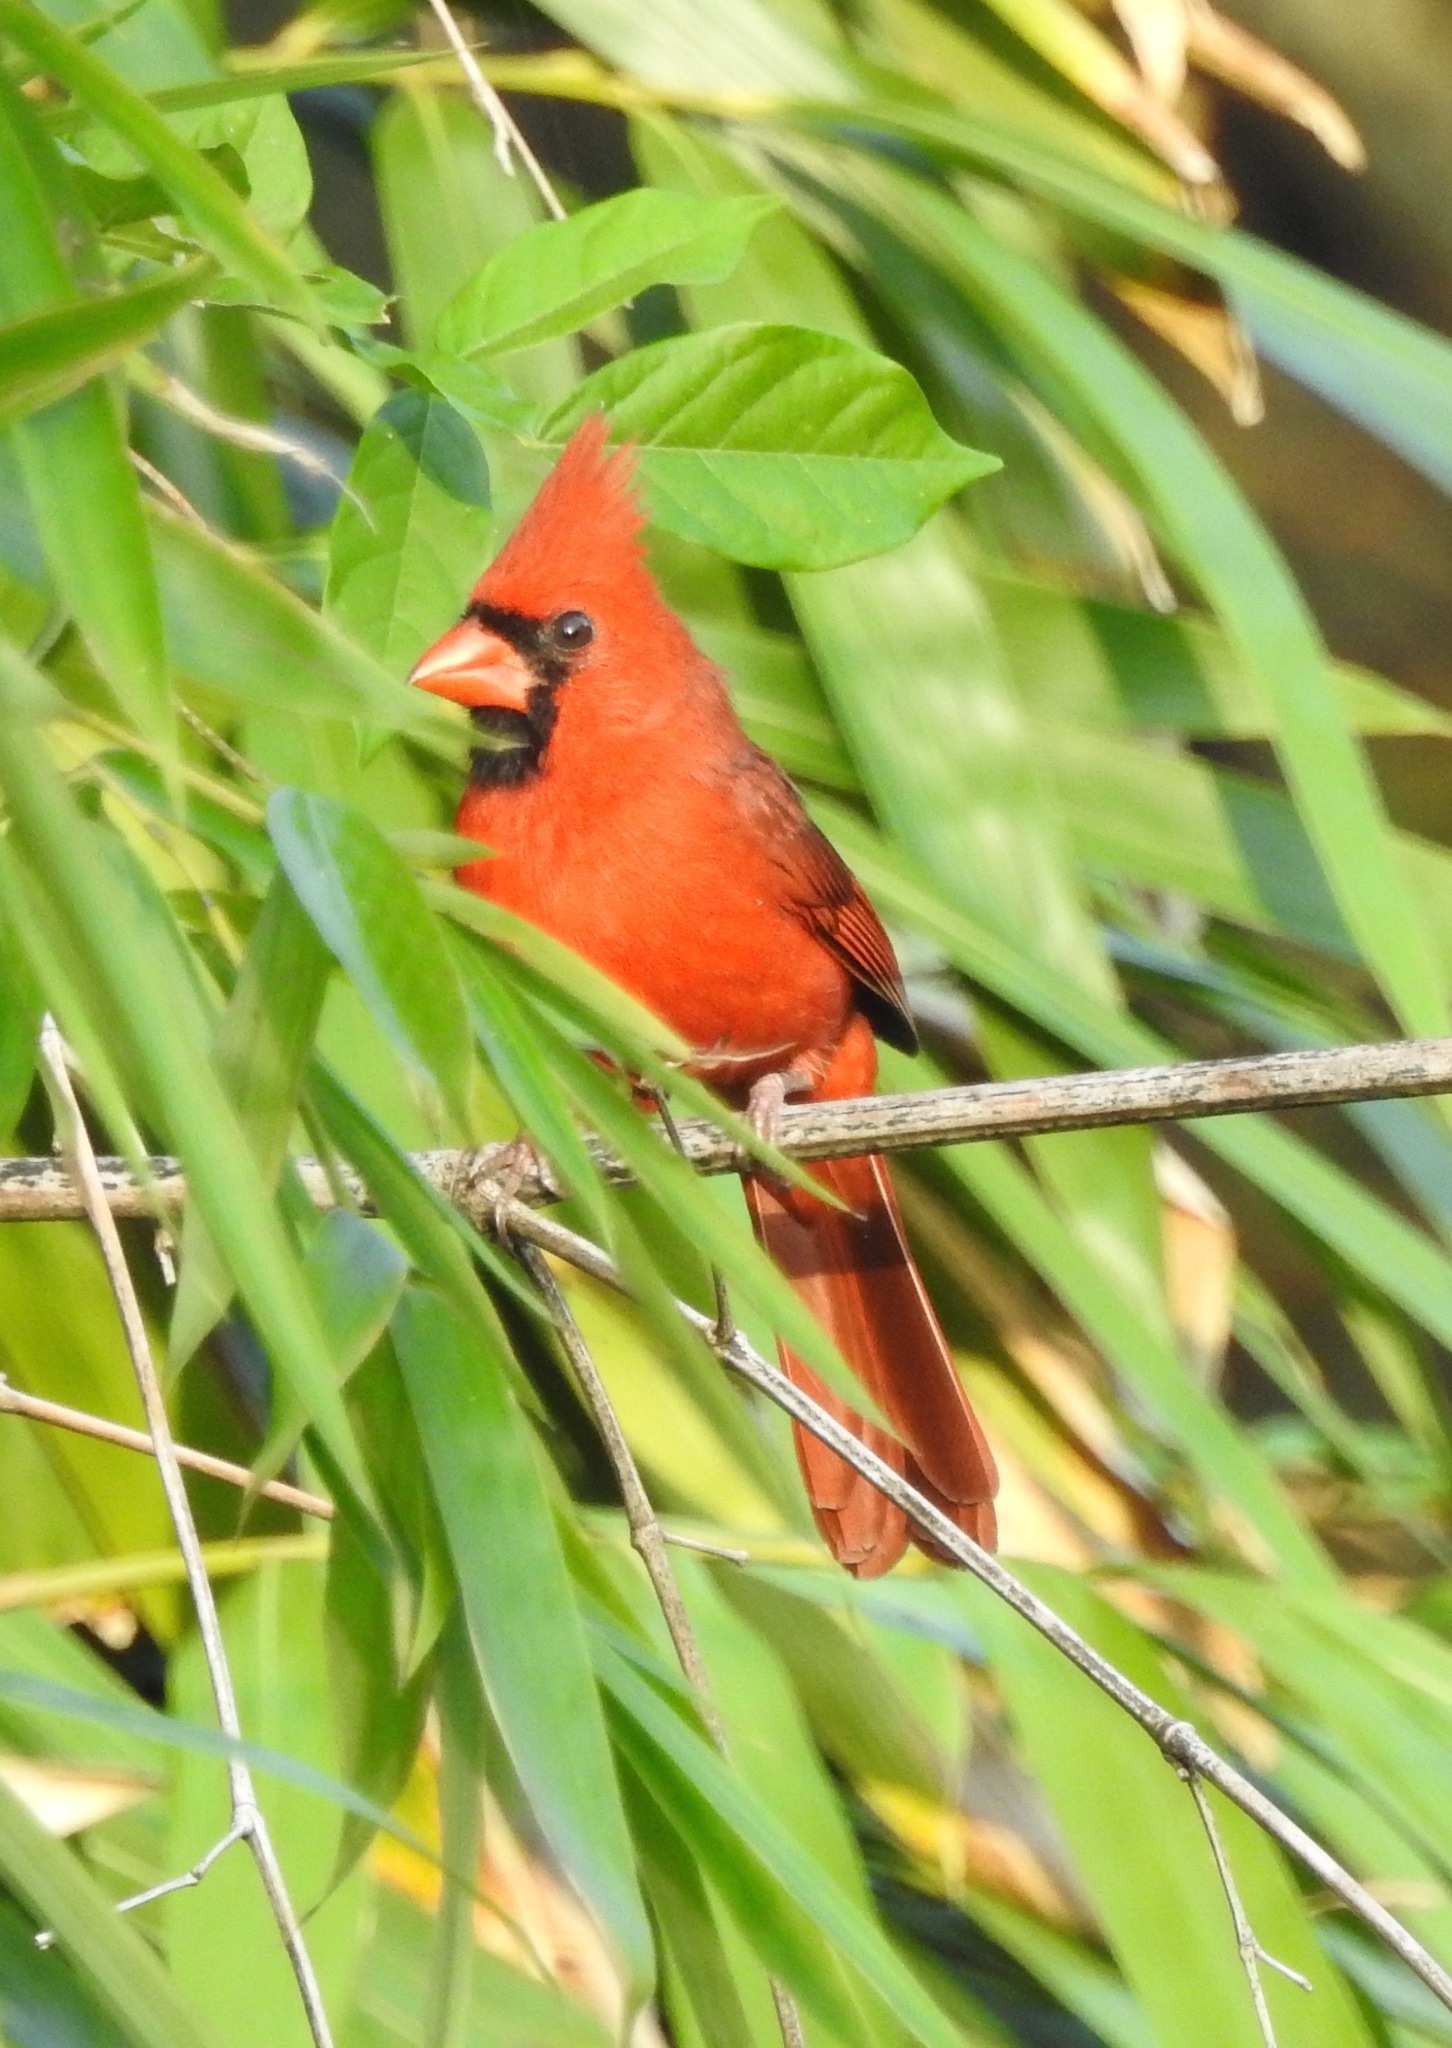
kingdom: Animalia
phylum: Chordata
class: Aves
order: Passeriformes
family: Cardinalidae
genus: Cardinalis
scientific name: Cardinalis cardinalis
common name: Northern cardinal
